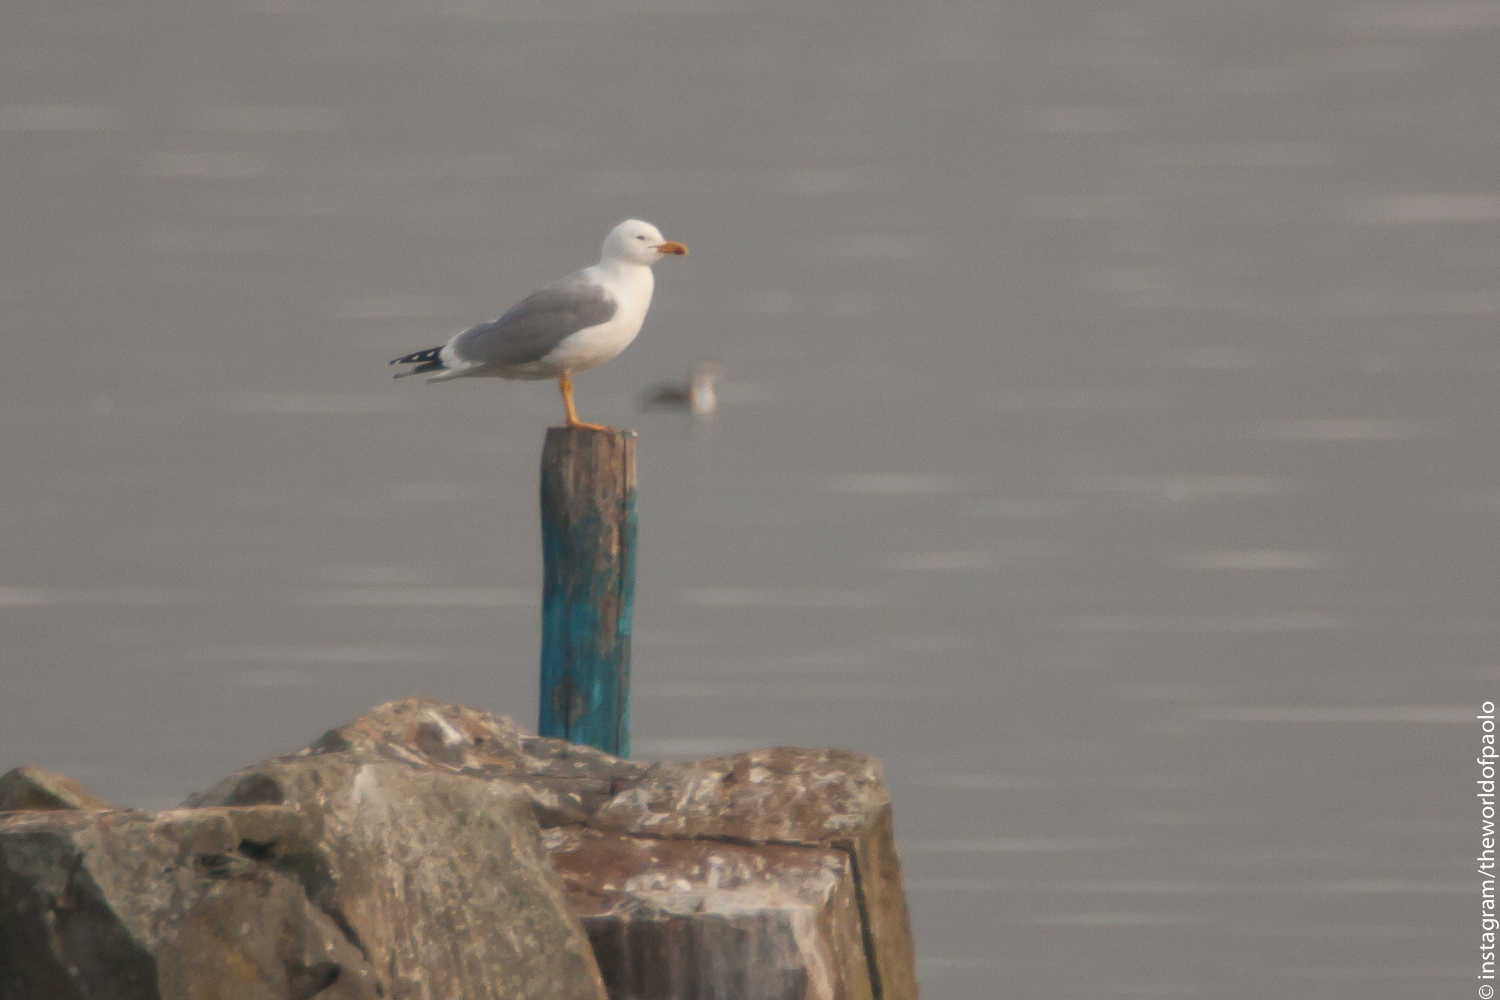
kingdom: Animalia
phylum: Chordata
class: Aves
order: Charadriiformes
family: Laridae
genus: Larus
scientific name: Larus michahellis
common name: Yellow-legged gull
